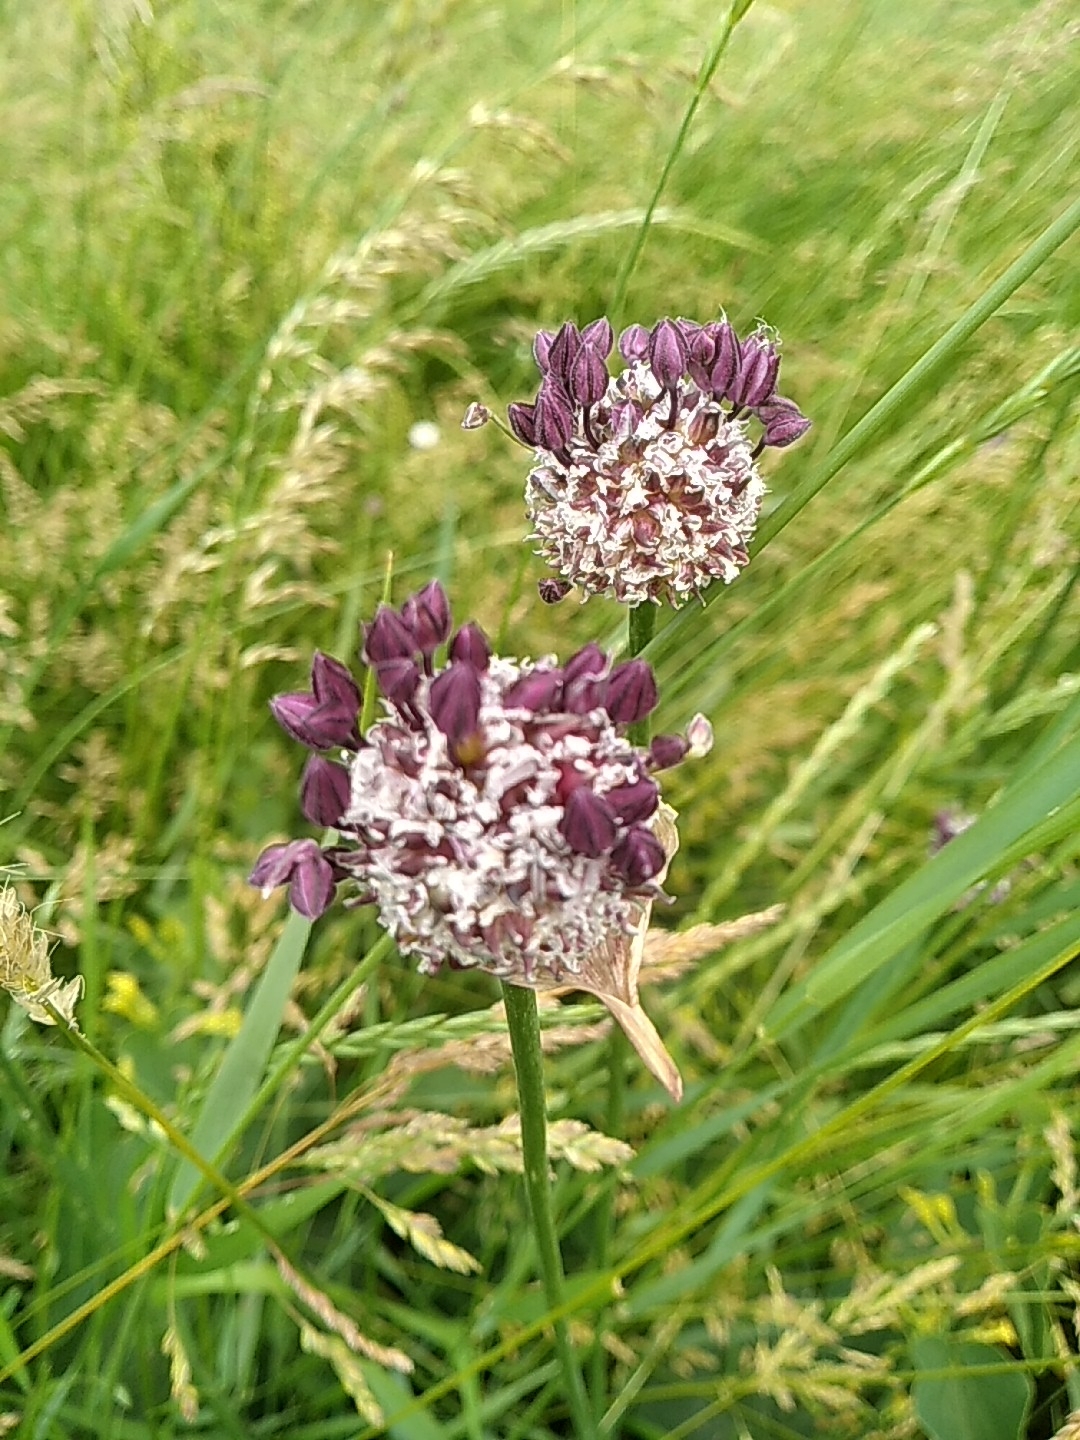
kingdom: Plantae
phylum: Tracheophyta
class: Liliopsida
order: Asparagales
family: Amaryllidaceae
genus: Allium
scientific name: Allium scorodoprasum
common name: Sand leek
